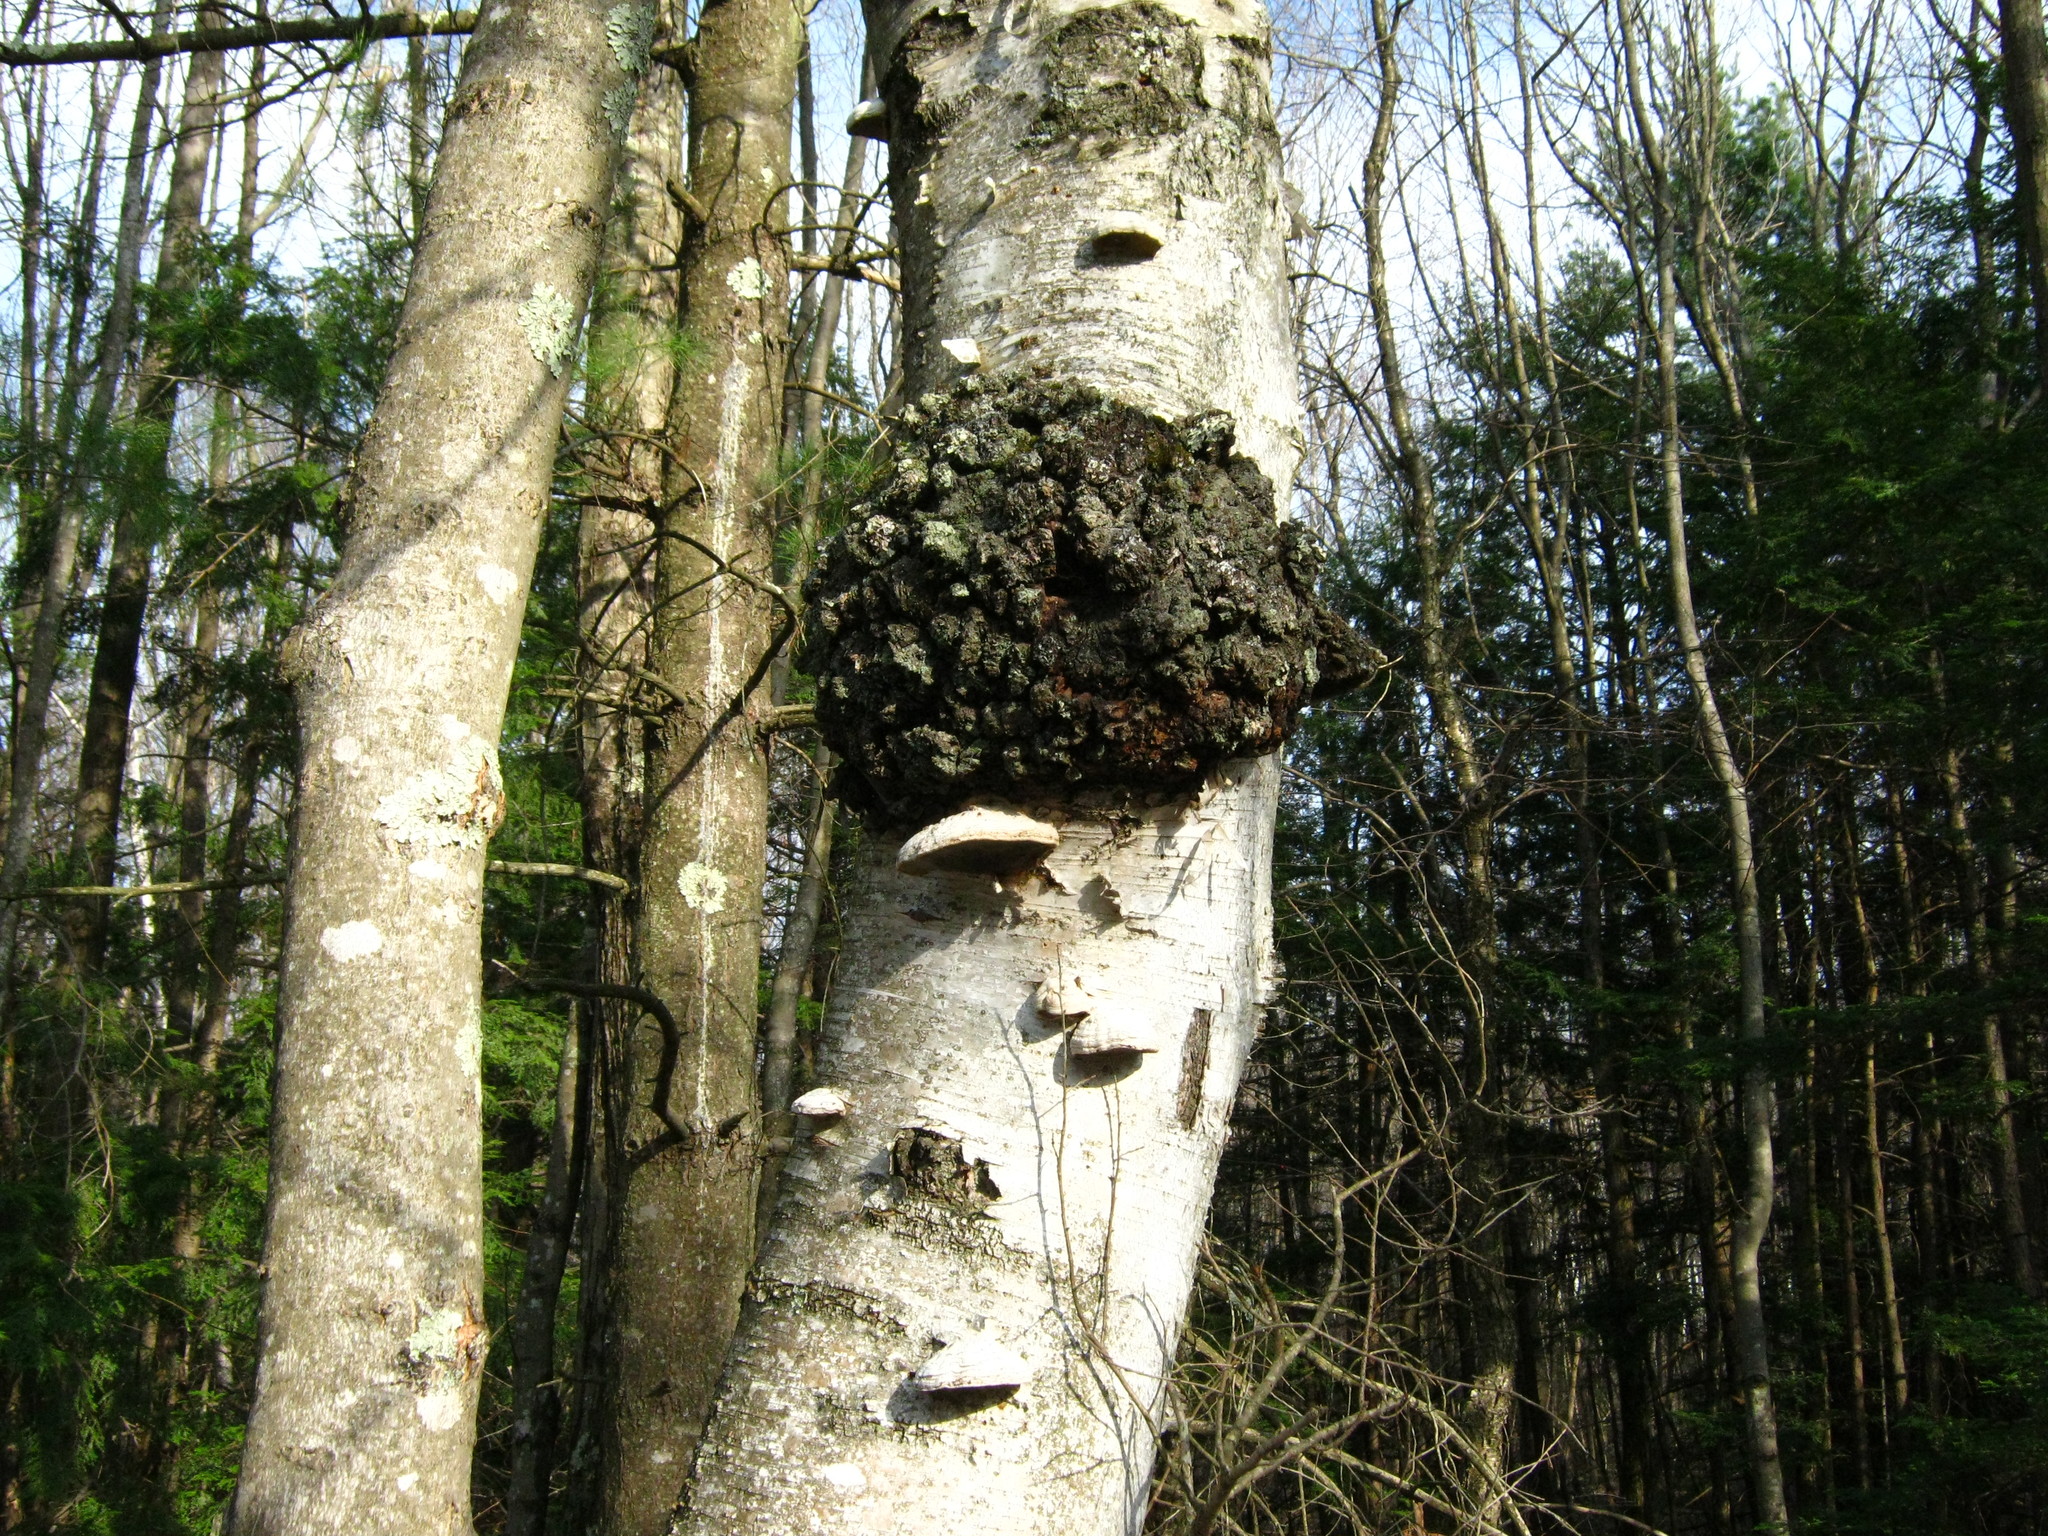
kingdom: Fungi
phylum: Basidiomycota
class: Agaricomycetes
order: Polyporales
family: Polyporaceae
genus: Fomes
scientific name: Fomes fomentarius
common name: Hoof fungus
